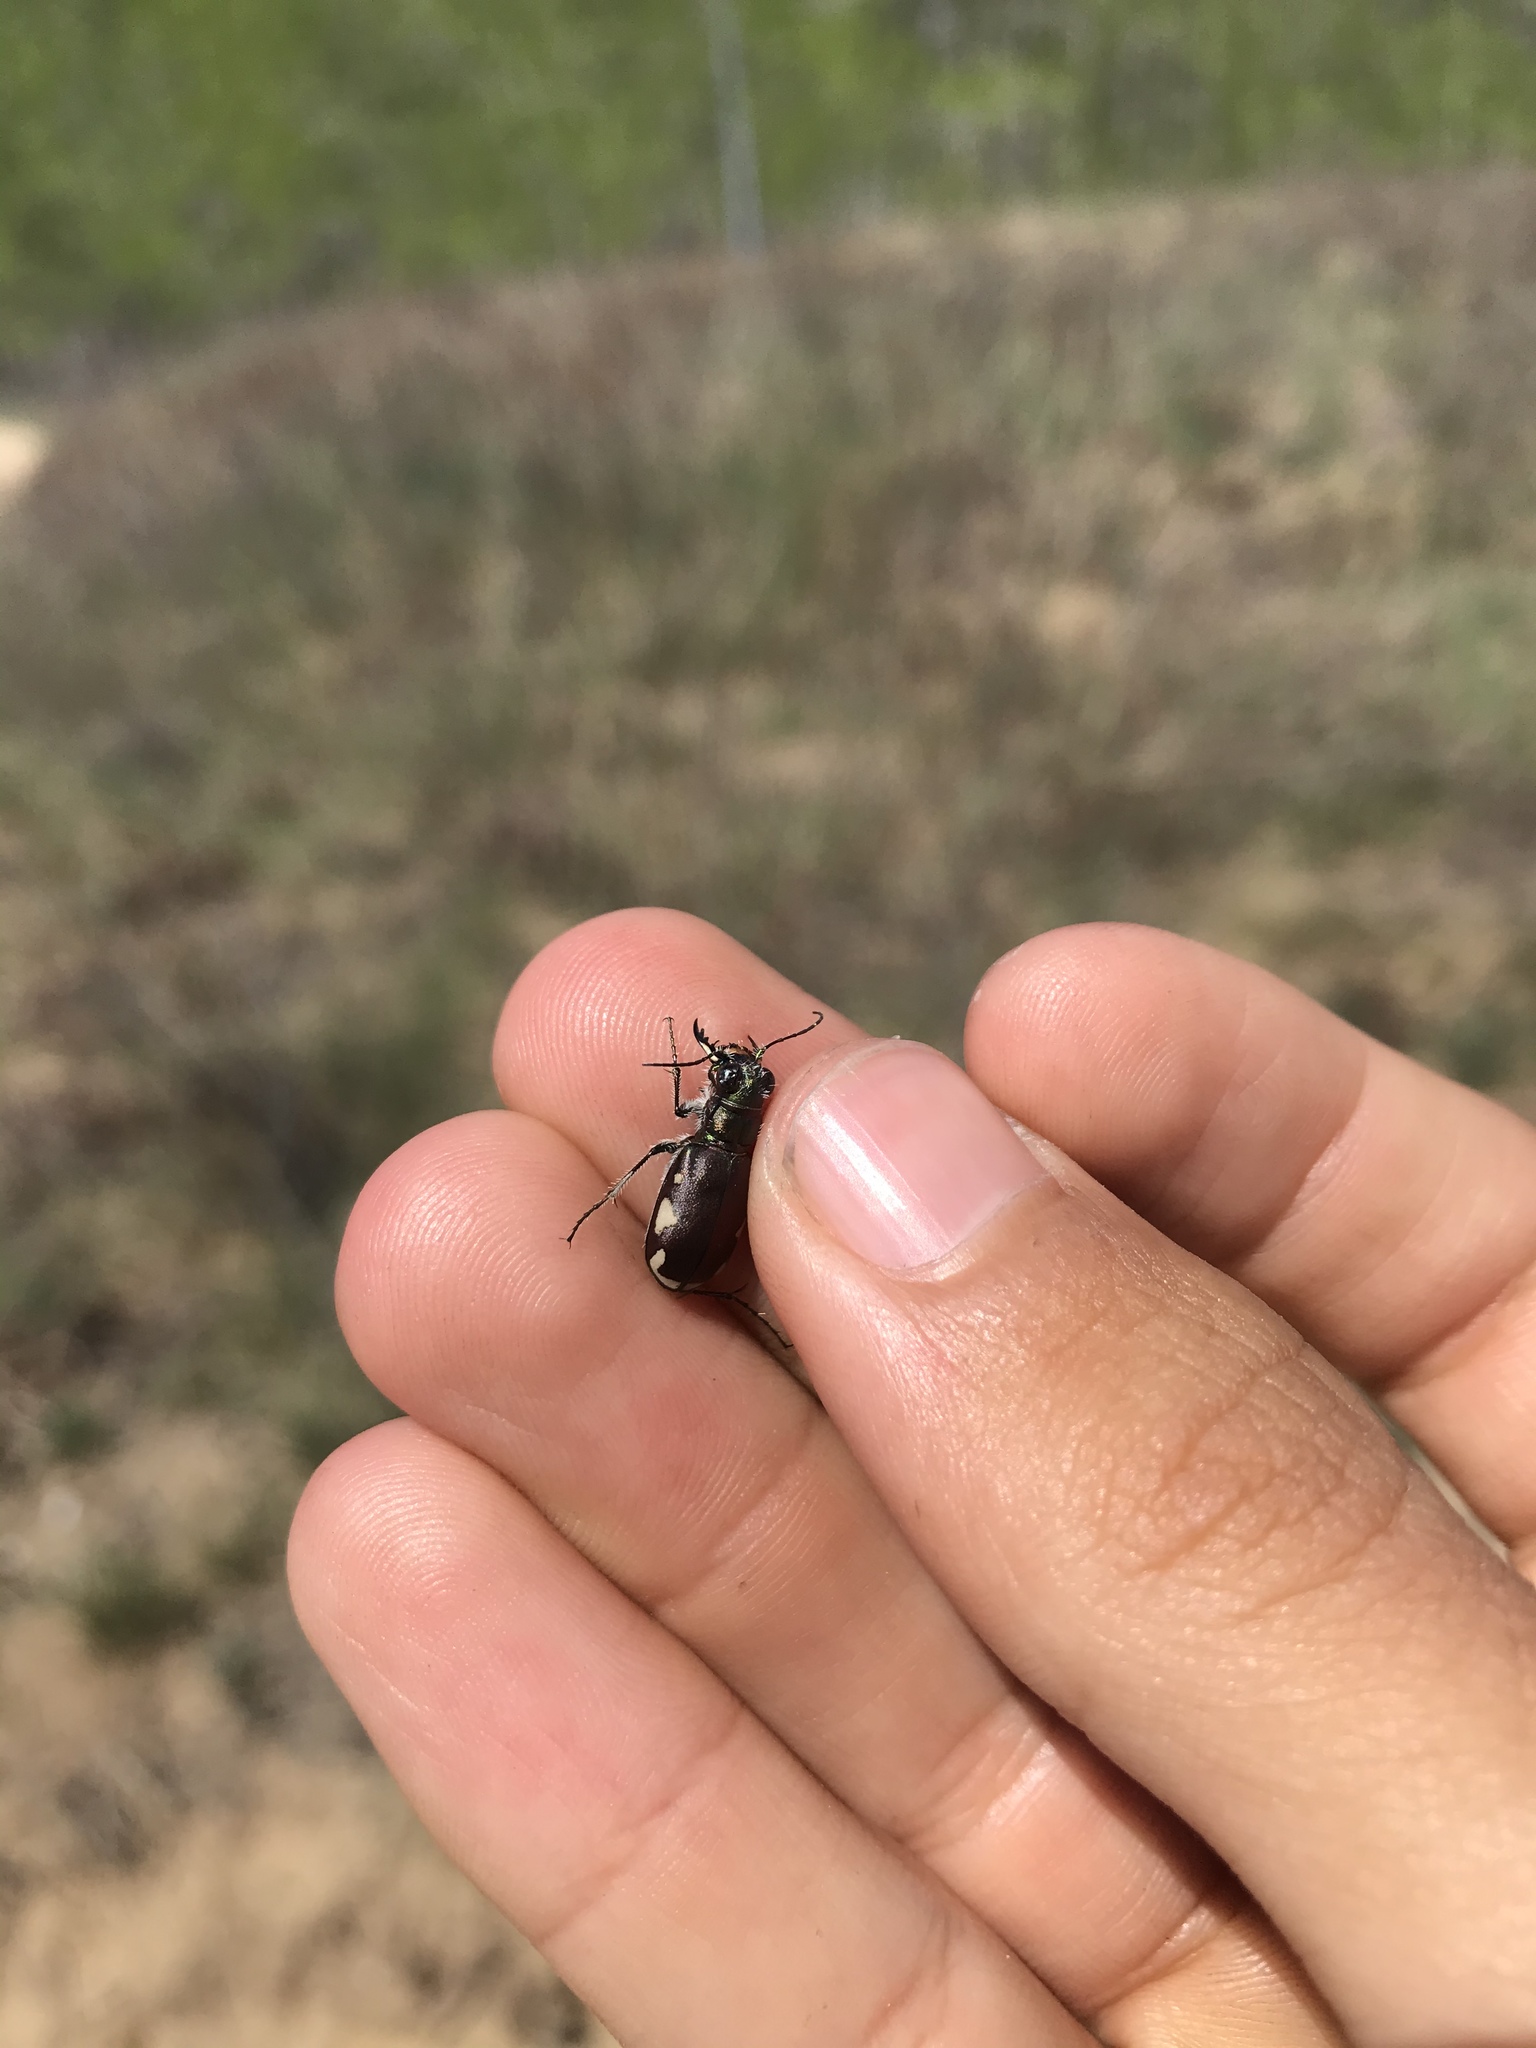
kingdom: Animalia
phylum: Arthropoda
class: Insecta
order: Coleoptera
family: Carabidae
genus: Cicindela
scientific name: Cicindela scutellaris
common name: Festive tiger beetle
